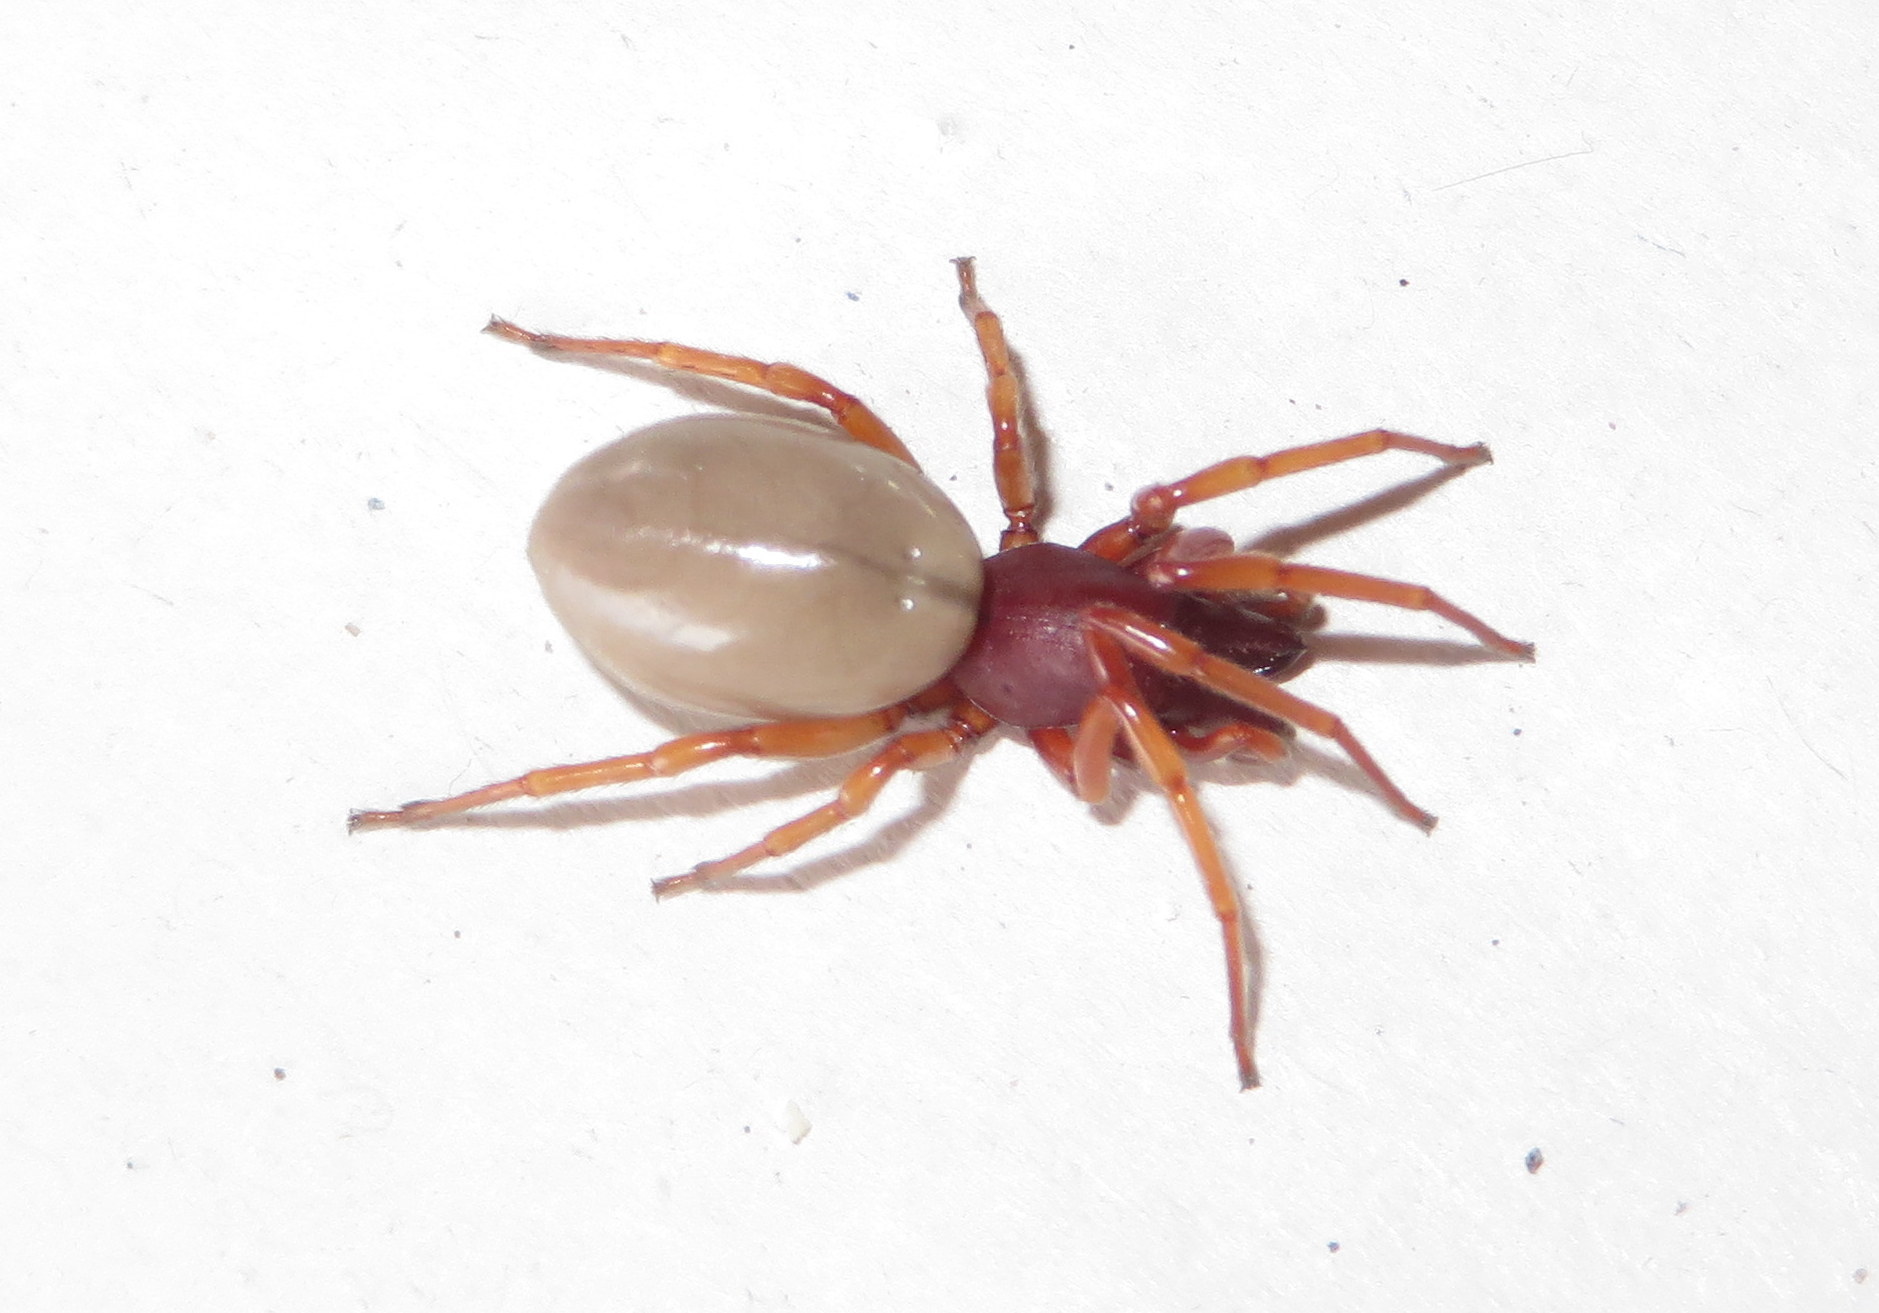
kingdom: Animalia
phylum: Arthropoda
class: Arachnida
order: Araneae
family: Dysderidae
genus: Dysdera
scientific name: Dysdera crocata
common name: Woodlouse spider
